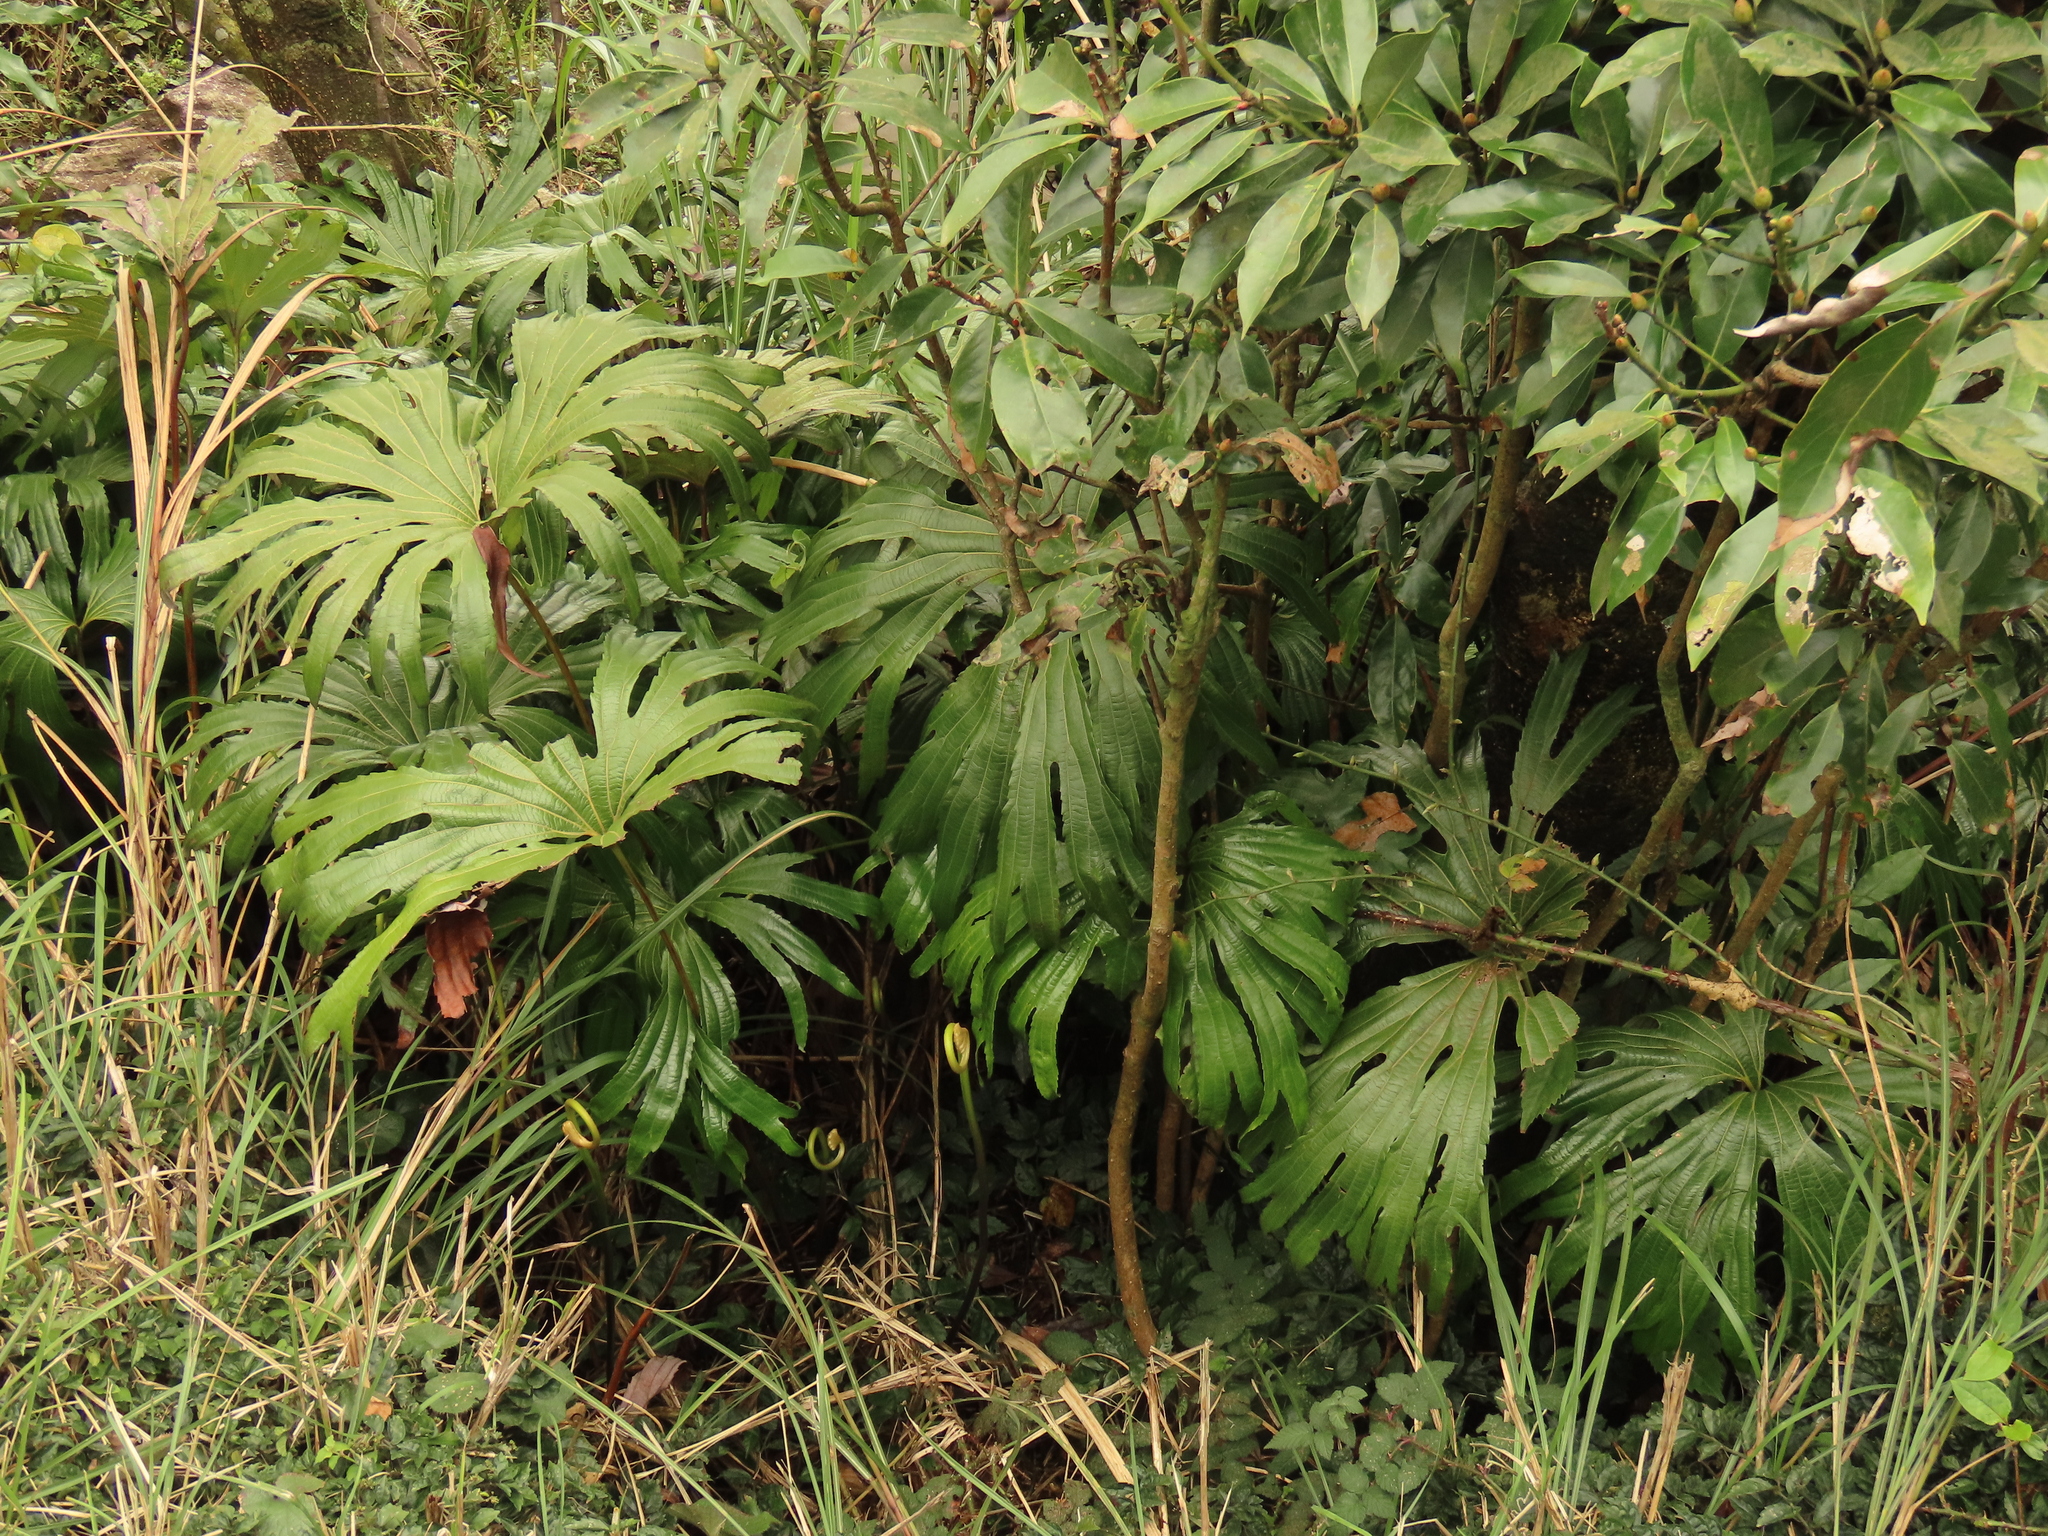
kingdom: Plantae
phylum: Tracheophyta
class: Polypodiopsida
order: Gleicheniales
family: Dipteridaceae
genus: Dipteris
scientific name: Dipteris conjugata
